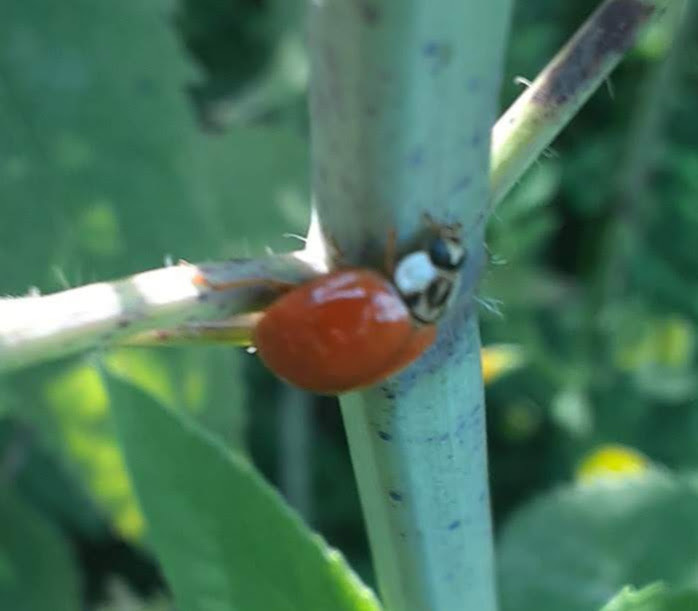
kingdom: Animalia
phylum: Arthropoda
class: Insecta
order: Coleoptera
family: Coccinellidae
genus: Harmonia
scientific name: Harmonia axyridis
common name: Harlequin ladybird
